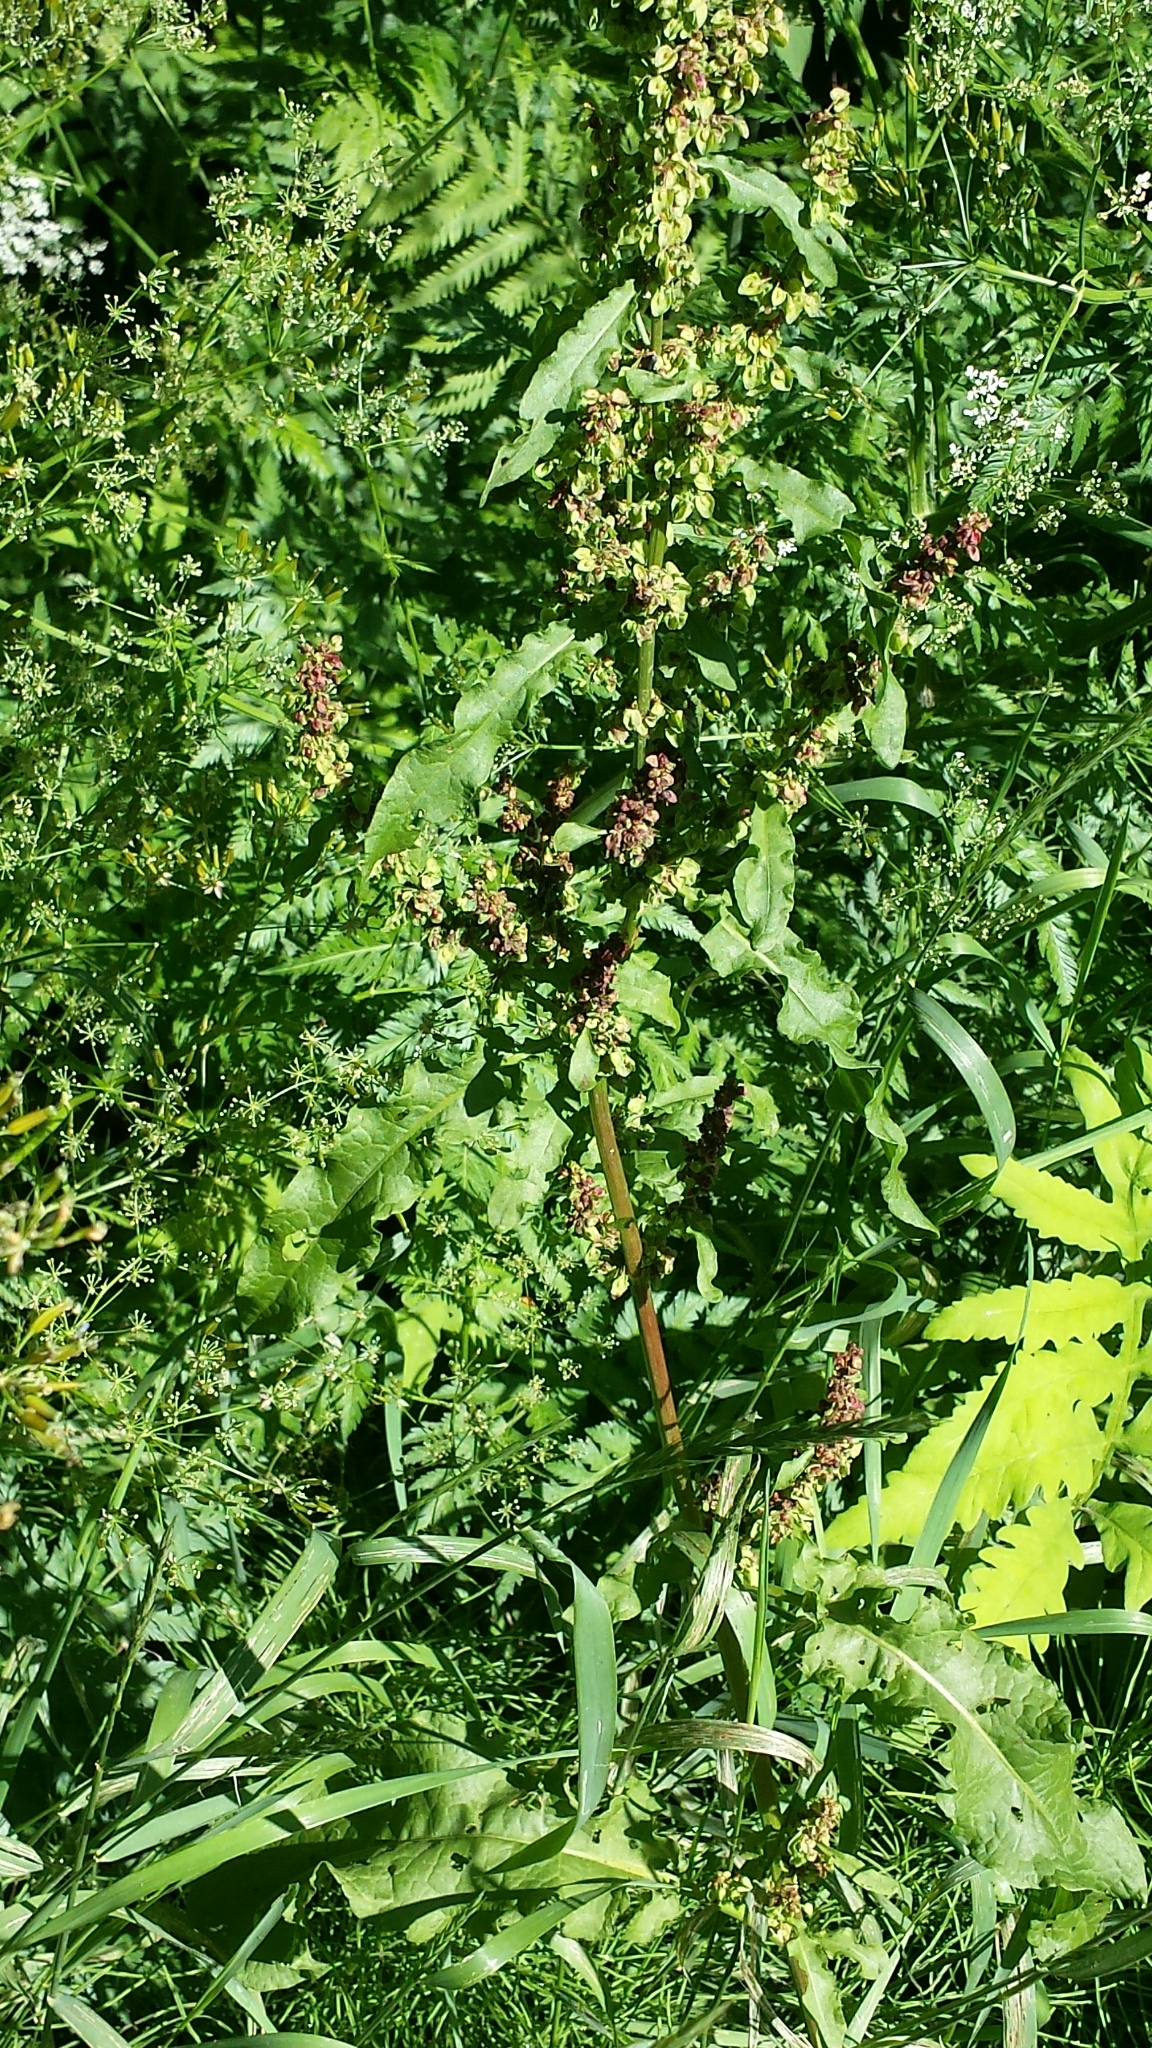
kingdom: Plantae
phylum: Tracheophyta
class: Magnoliopsida
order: Caryophyllales
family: Polygonaceae
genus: Rumex
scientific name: Rumex crispus
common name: Curled dock
